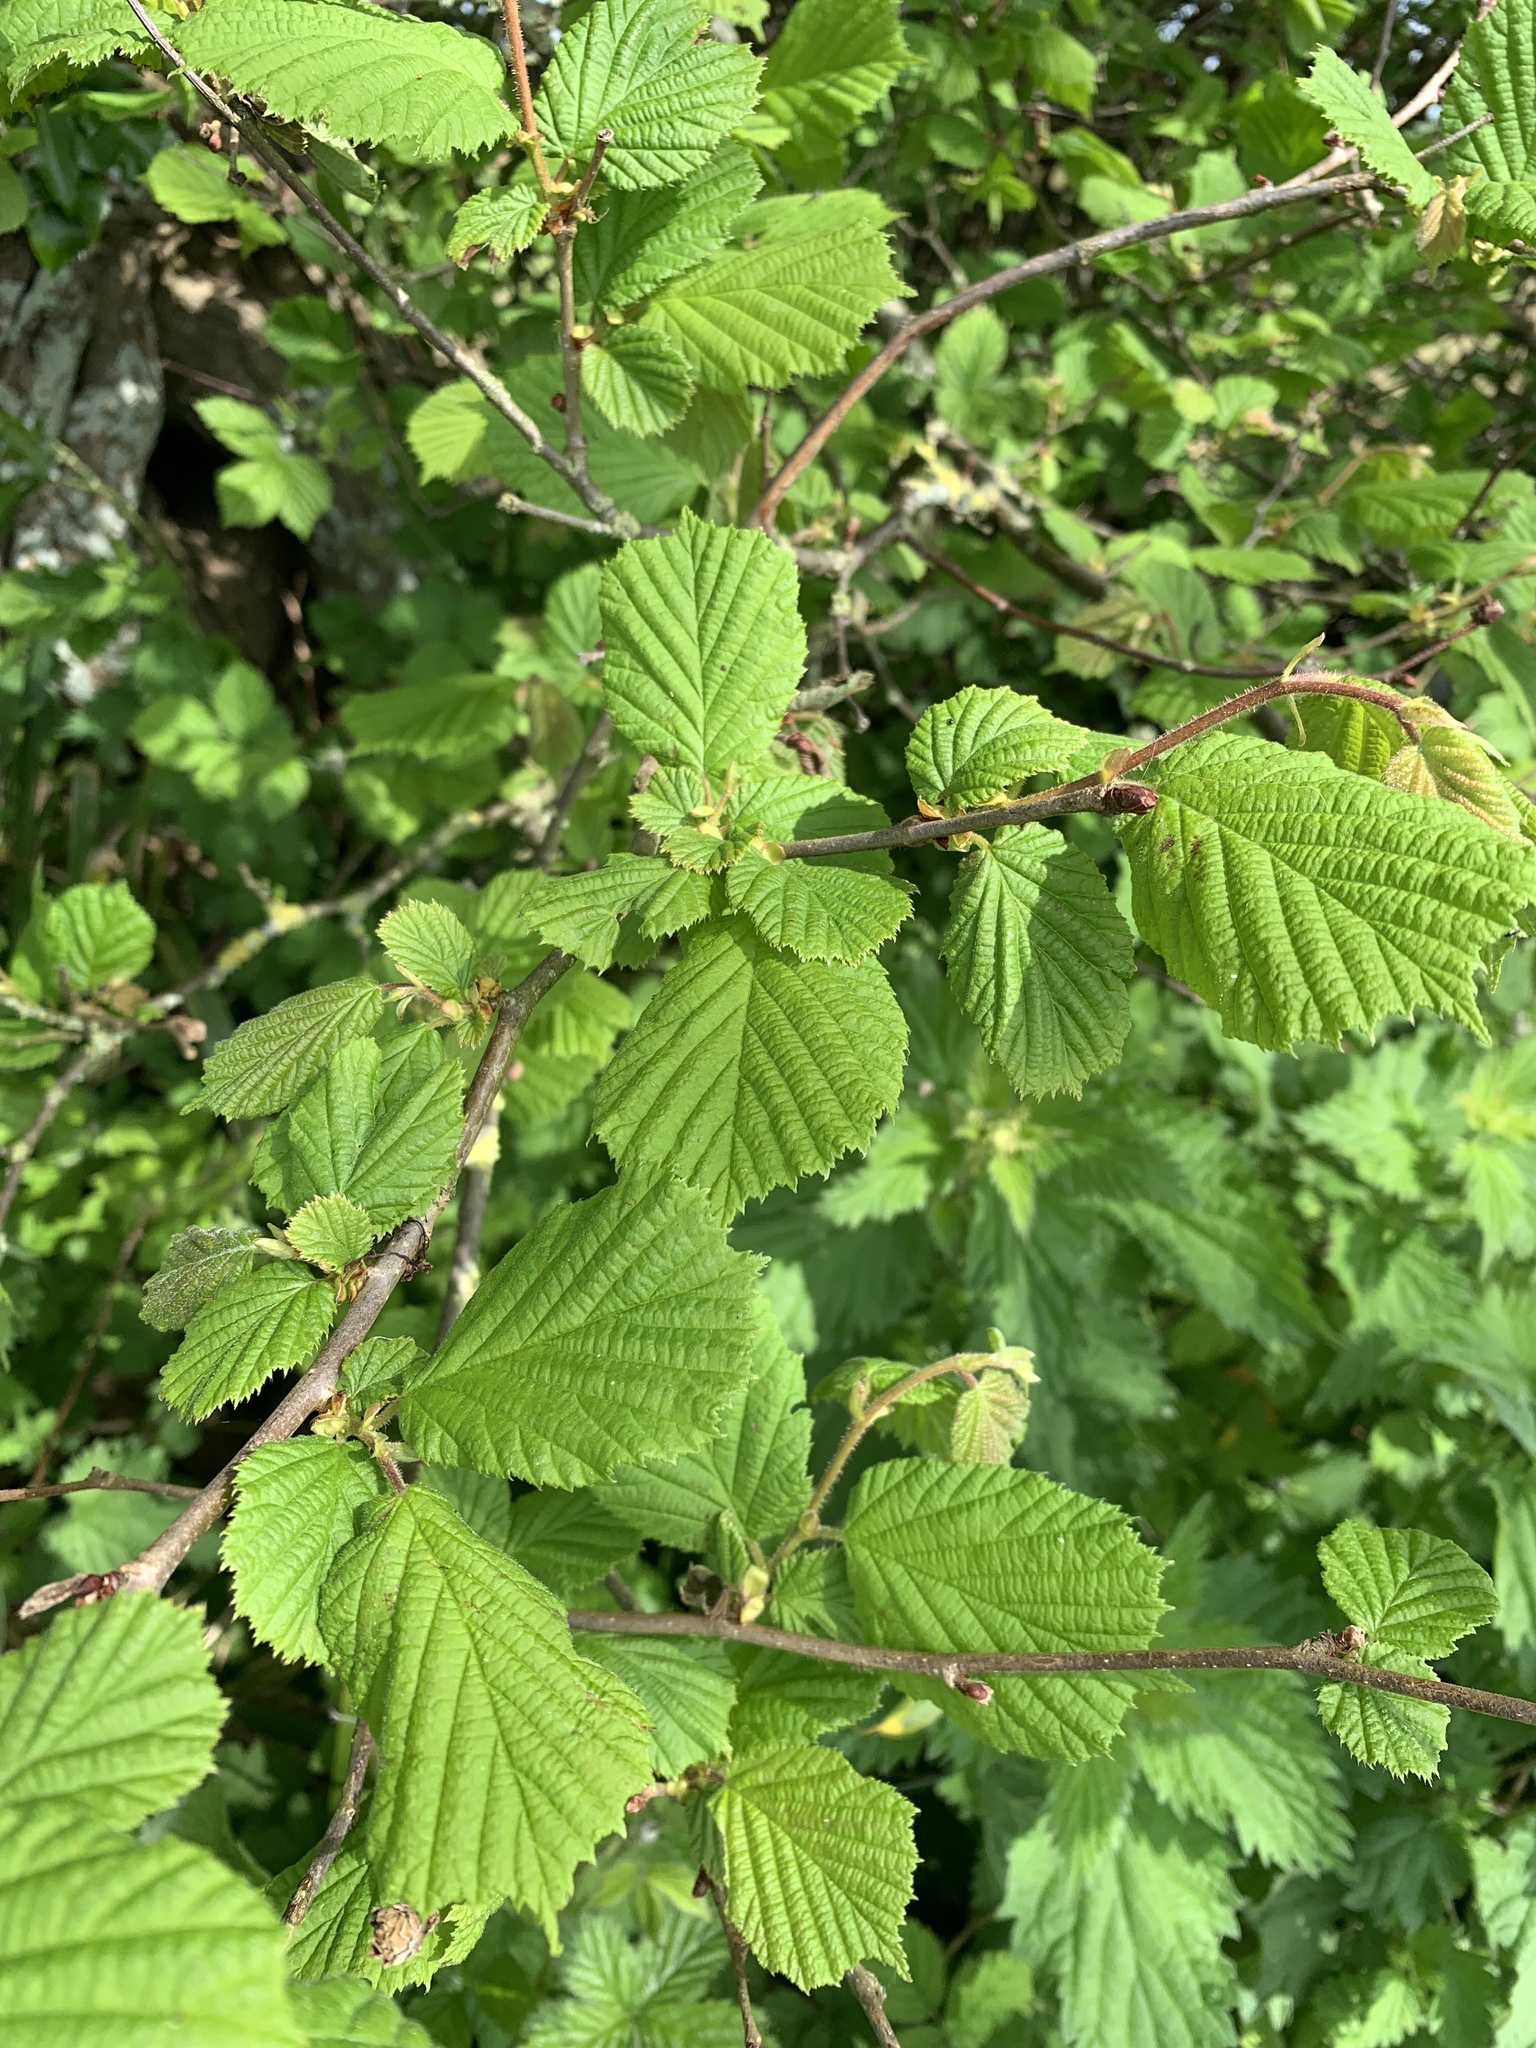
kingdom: Plantae
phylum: Tracheophyta
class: Magnoliopsida
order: Fagales
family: Betulaceae
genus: Corylus
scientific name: Corylus avellana
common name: European hazel
